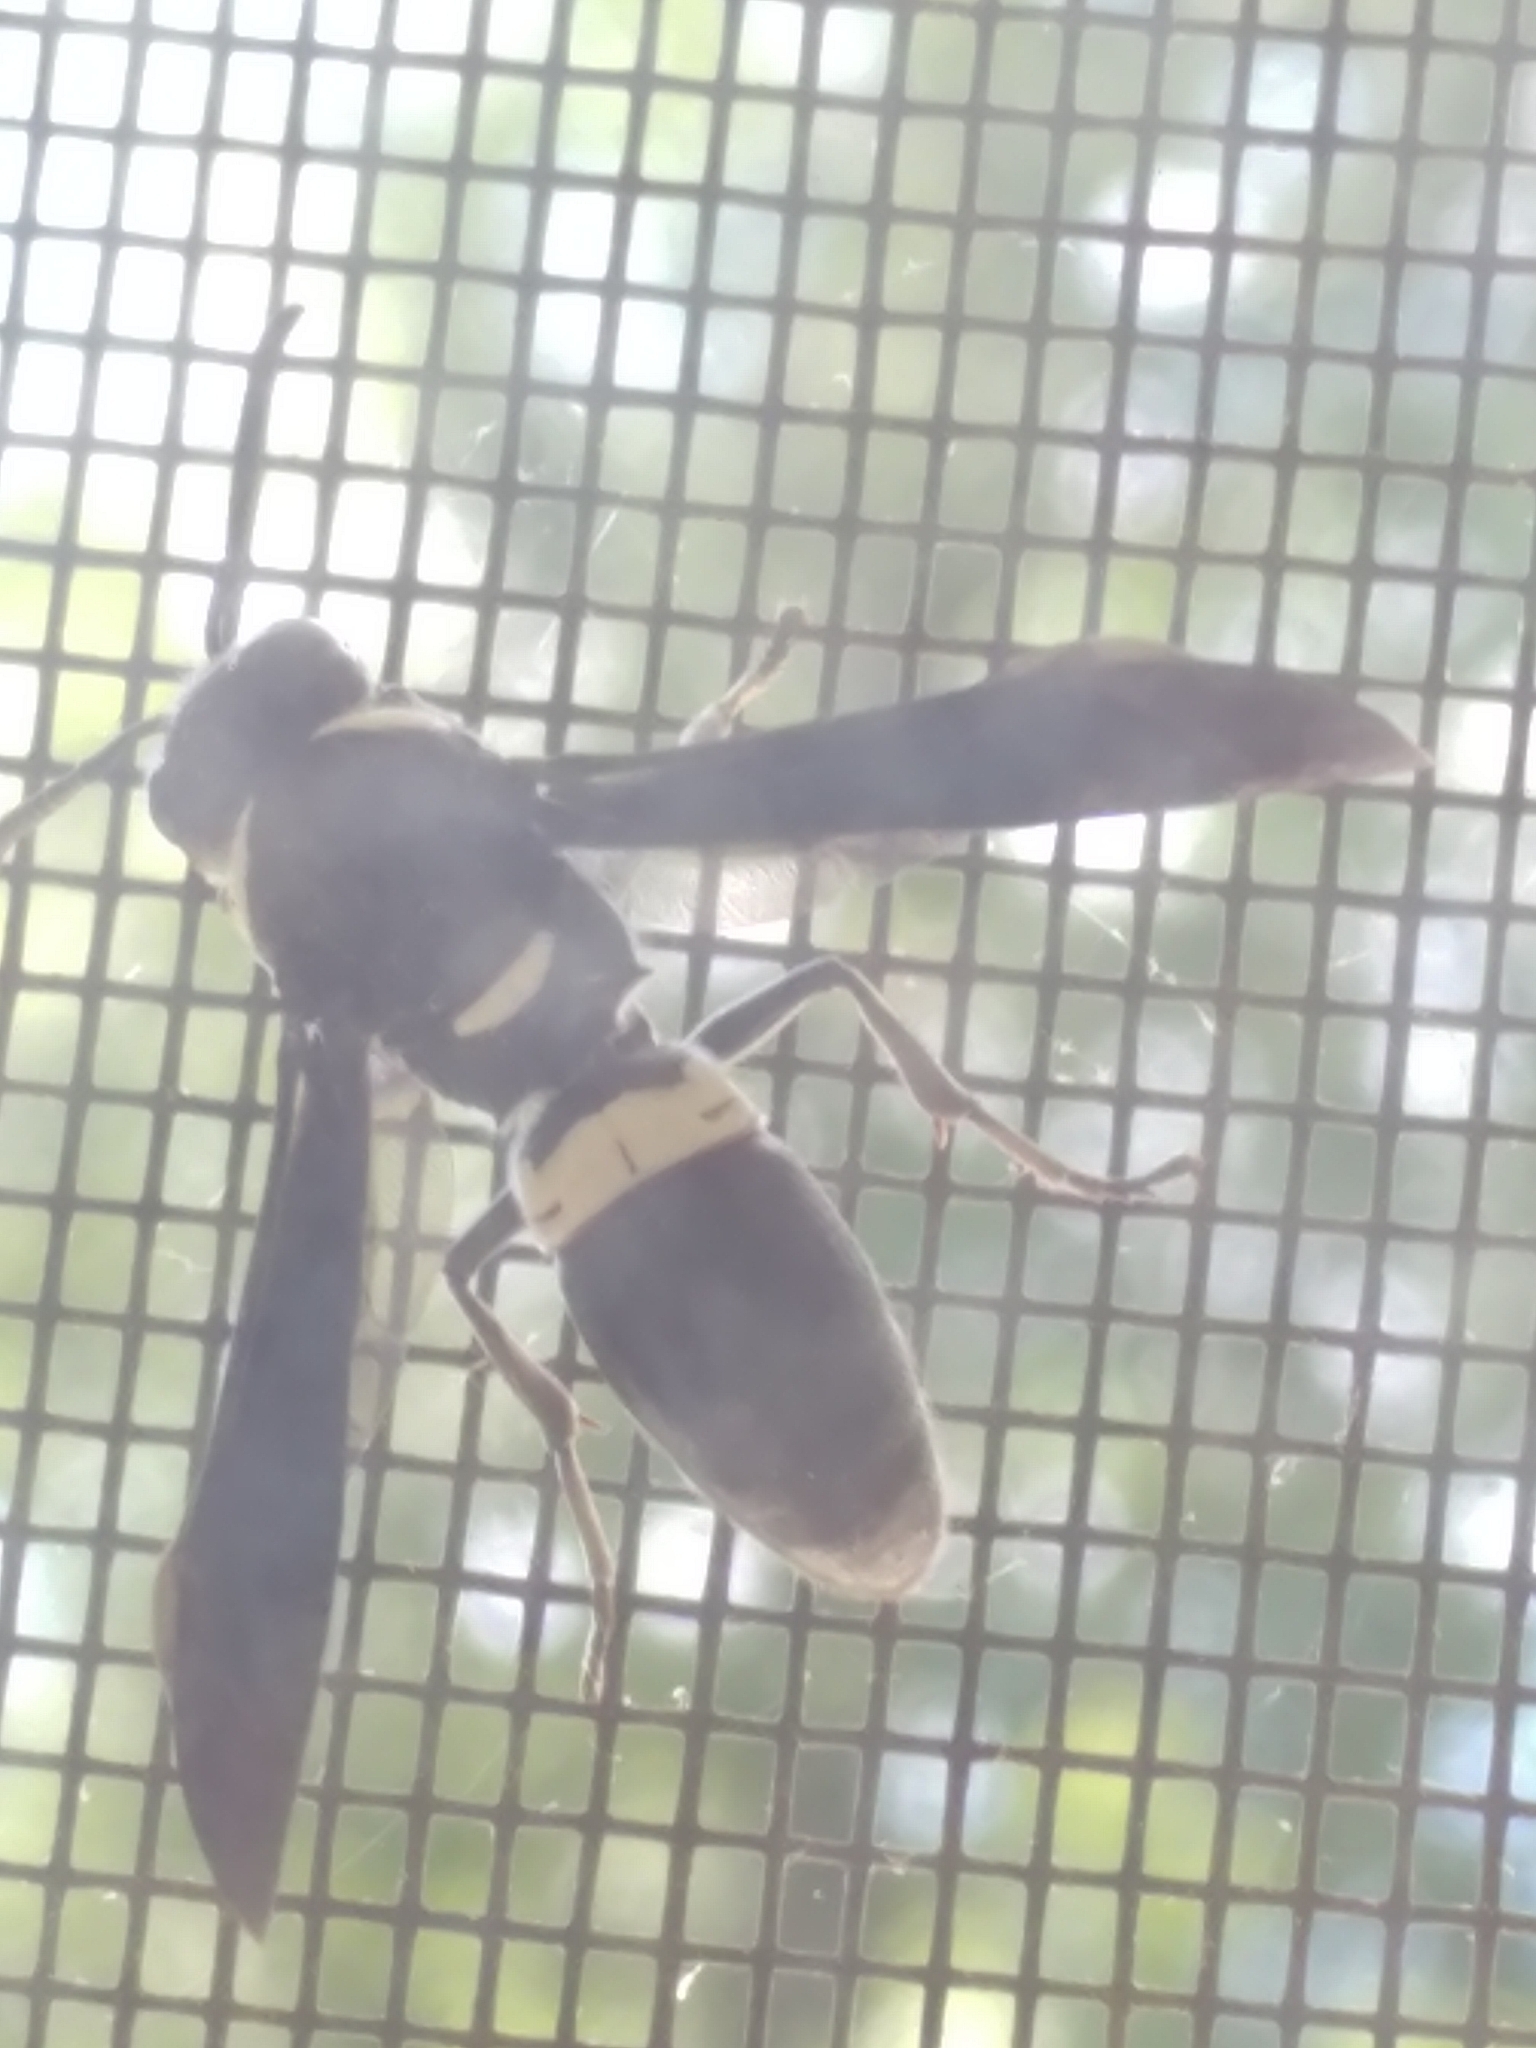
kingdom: Animalia
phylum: Arthropoda
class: Insecta
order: Hymenoptera
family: Eumenidae
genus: Monobia
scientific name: Monobia quadridens
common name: Four-toothed mason wasp
